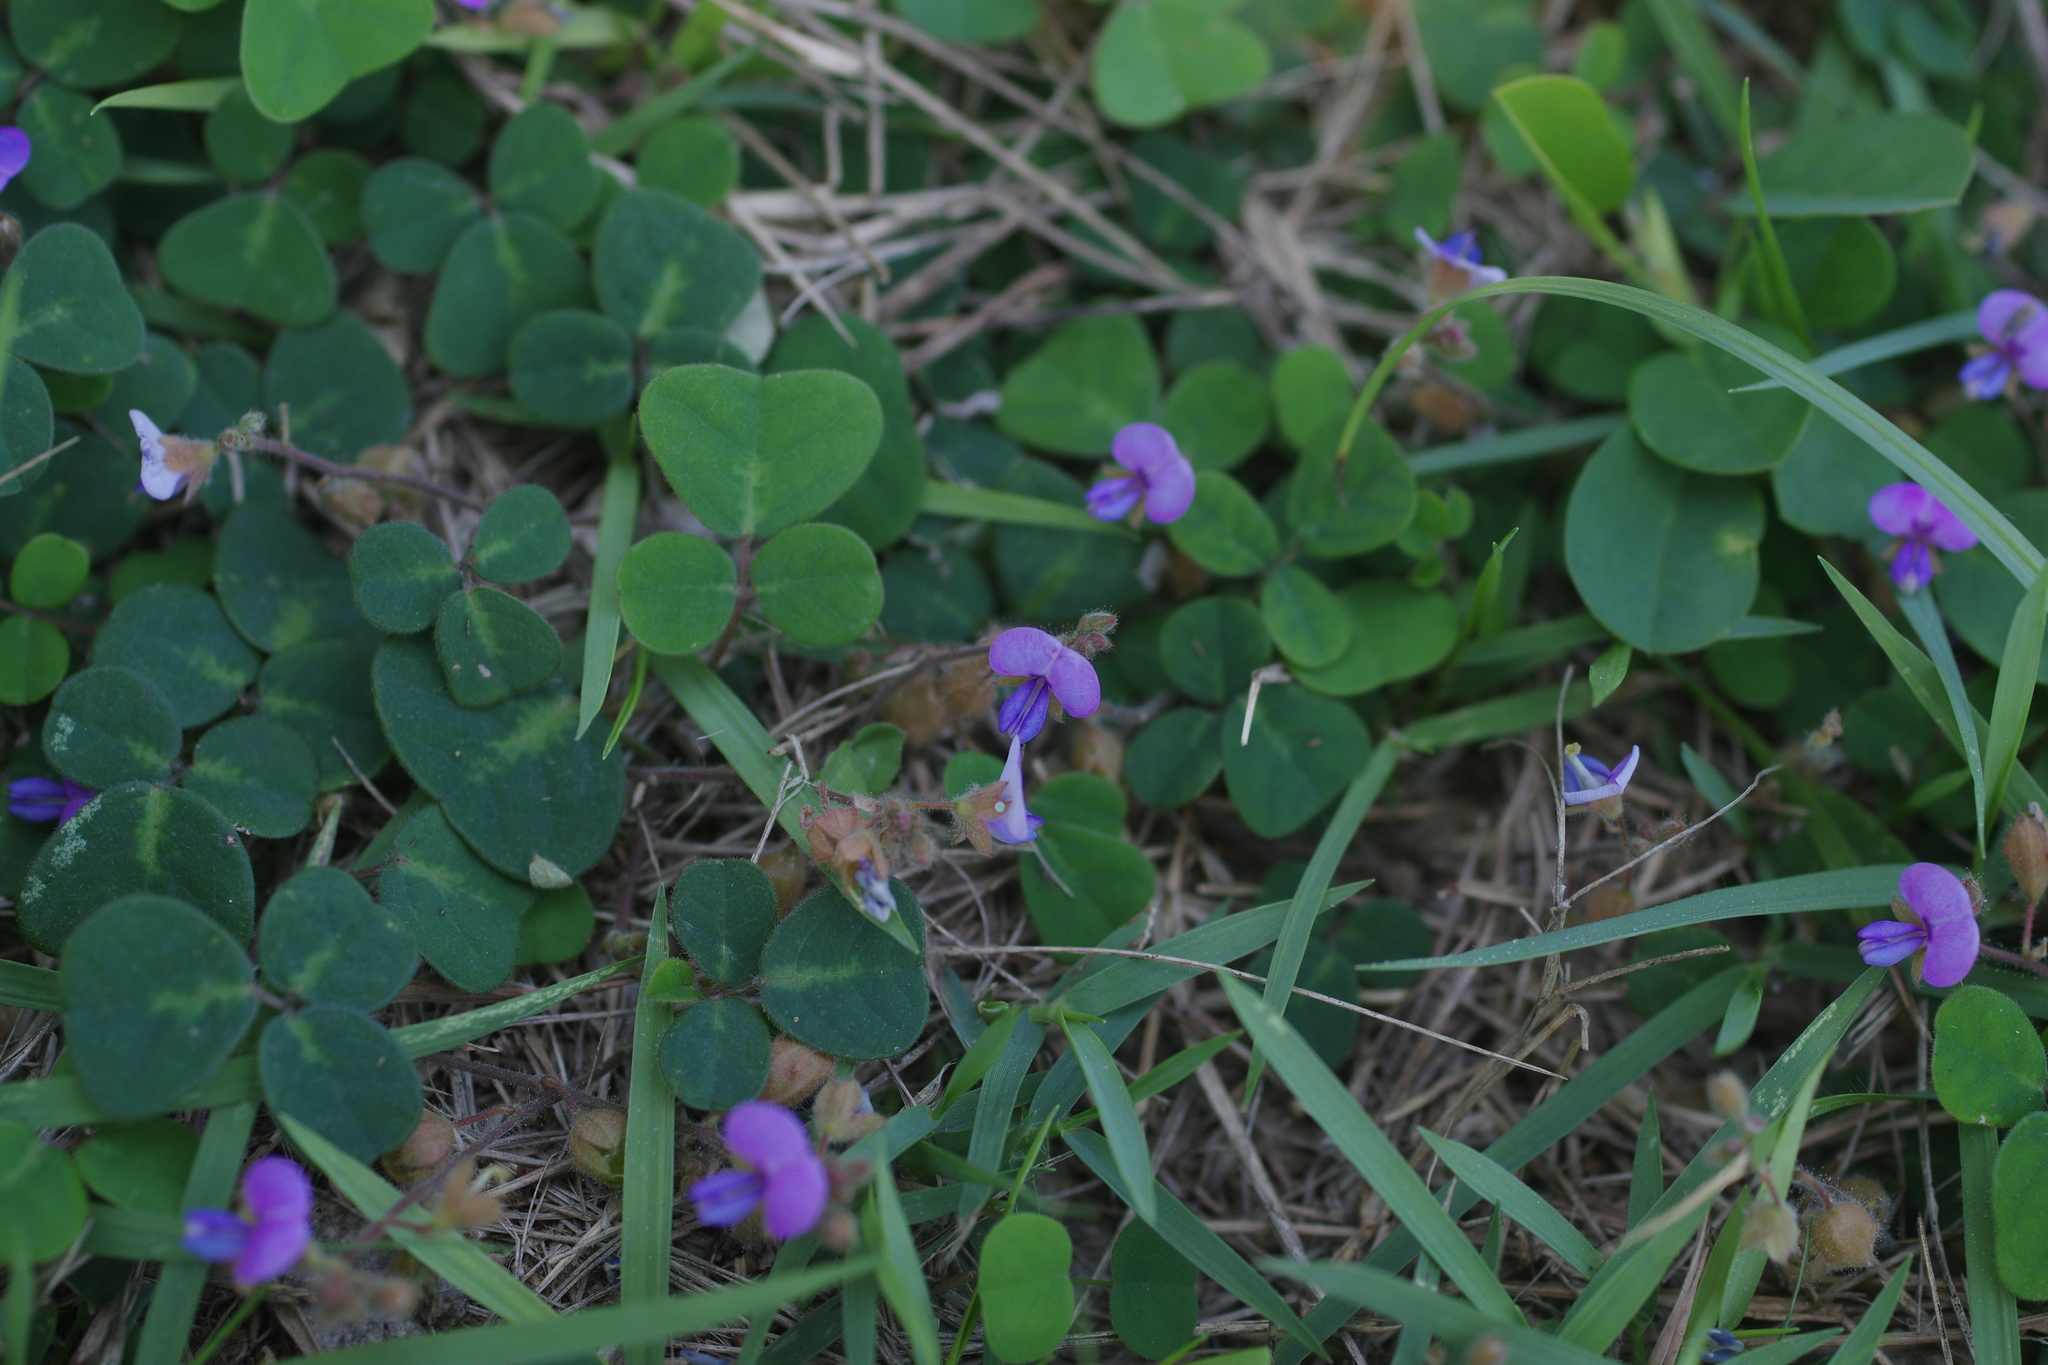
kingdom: Plantae
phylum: Tracheophyta
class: Magnoliopsida
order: Fabales
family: Fabaceae
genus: Christia
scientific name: Christia obcordata
